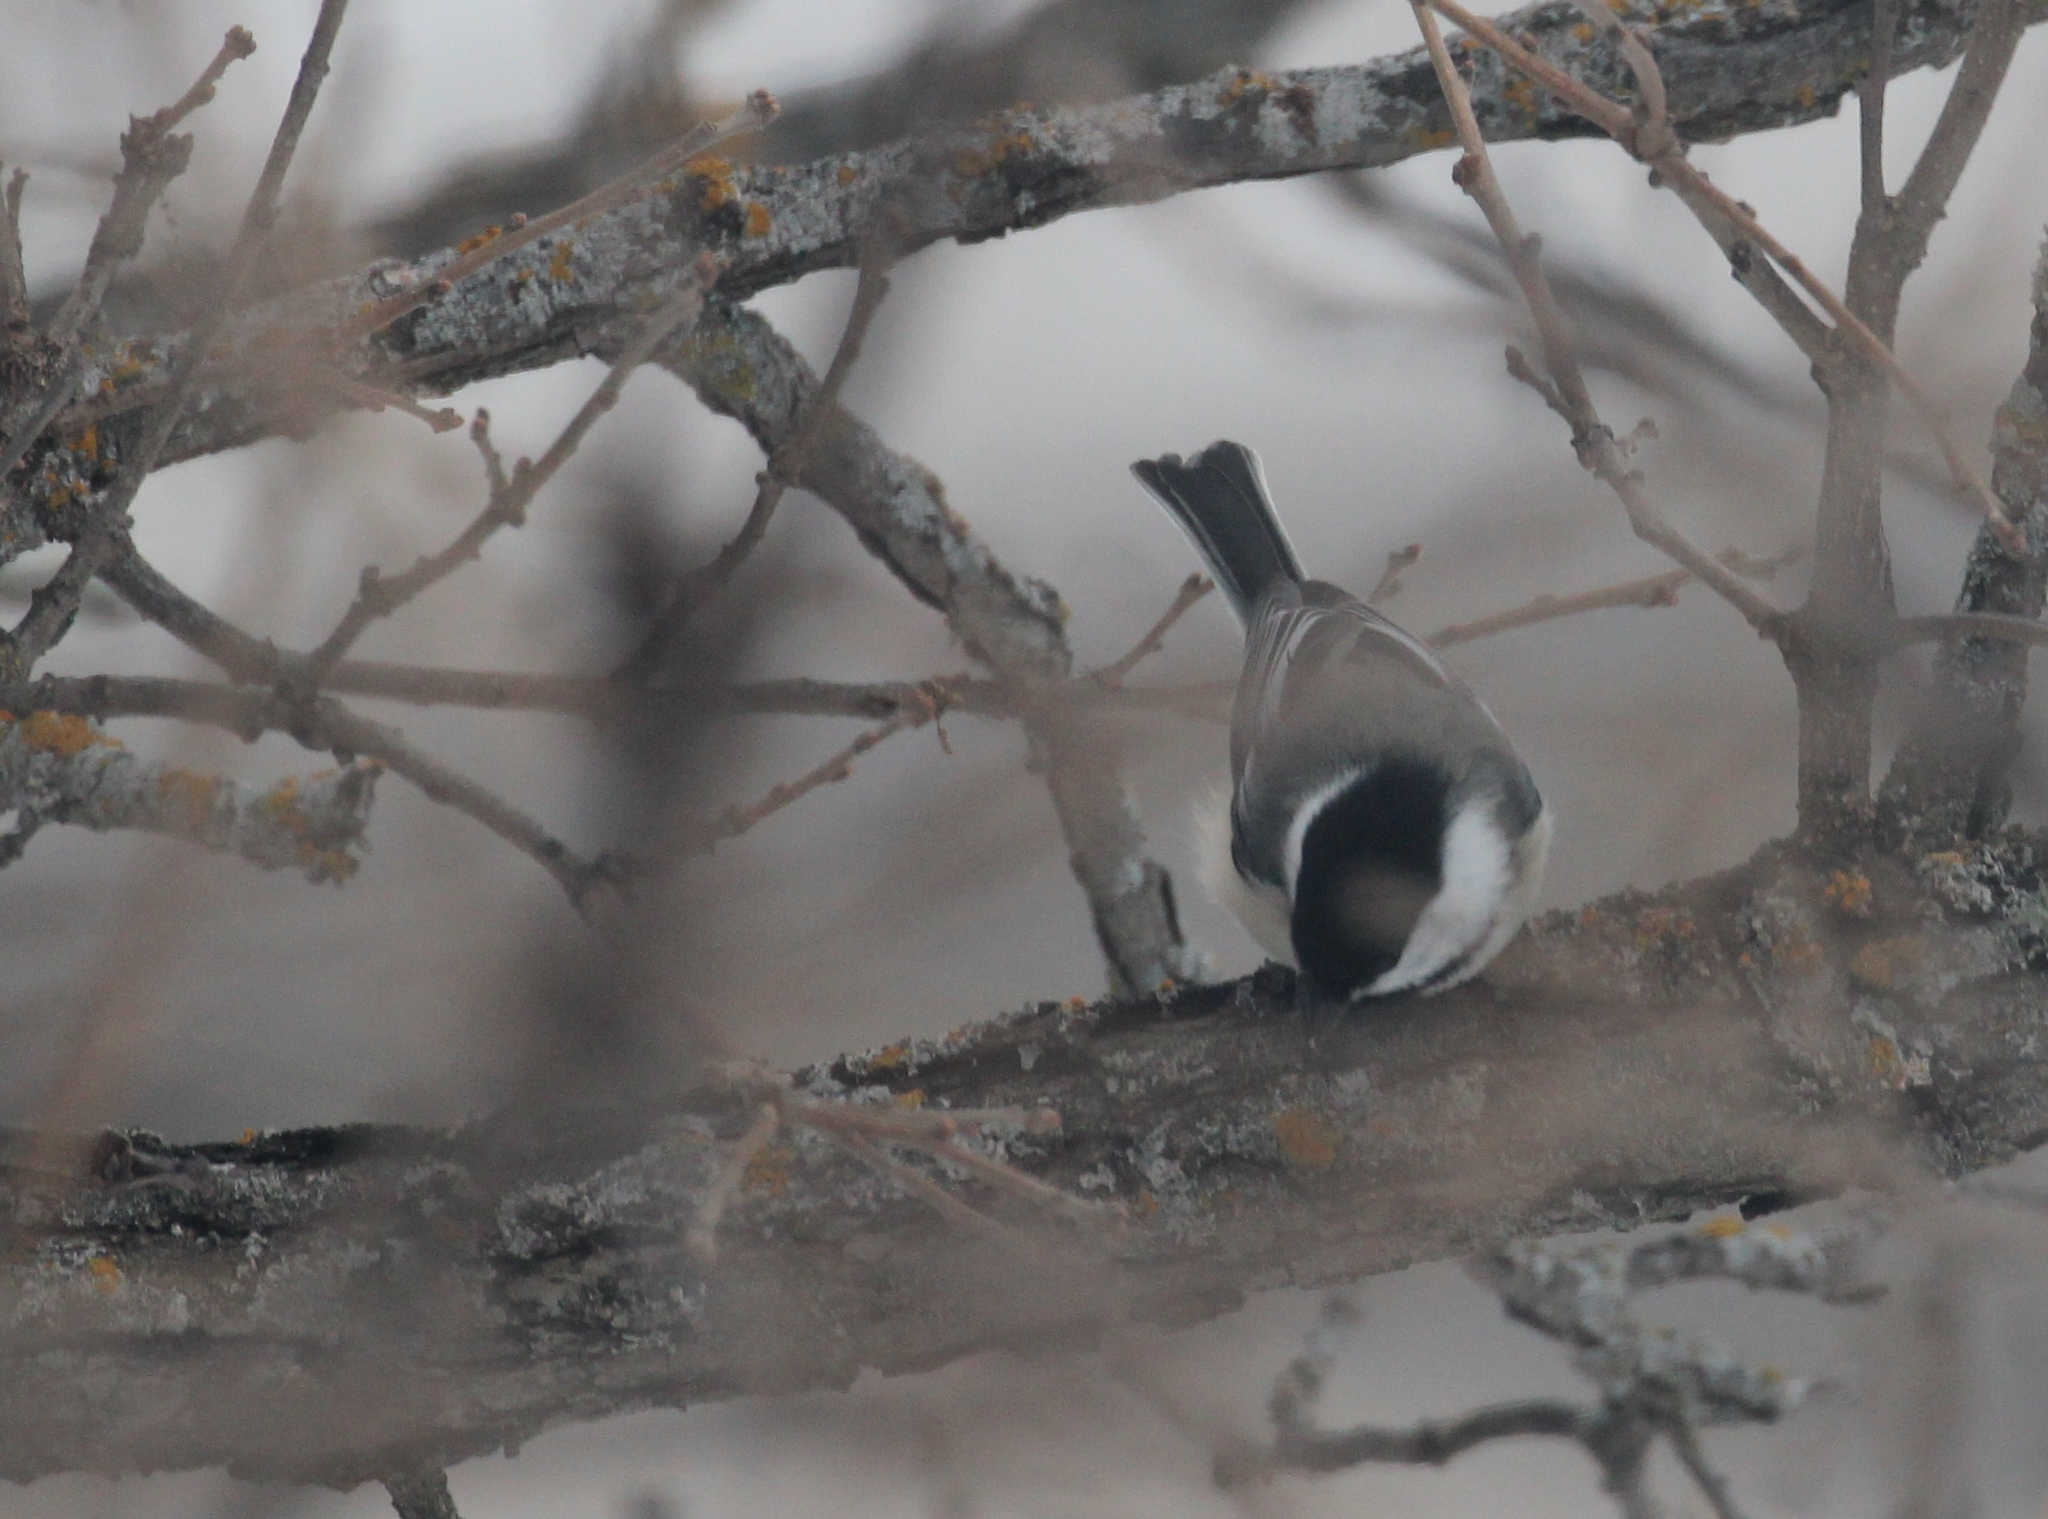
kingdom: Animalia
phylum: Chordata
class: Aves
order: Passeriformes
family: Paridae
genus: Poecile
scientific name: Poecile atricapillus
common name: Black-capped chickadee
